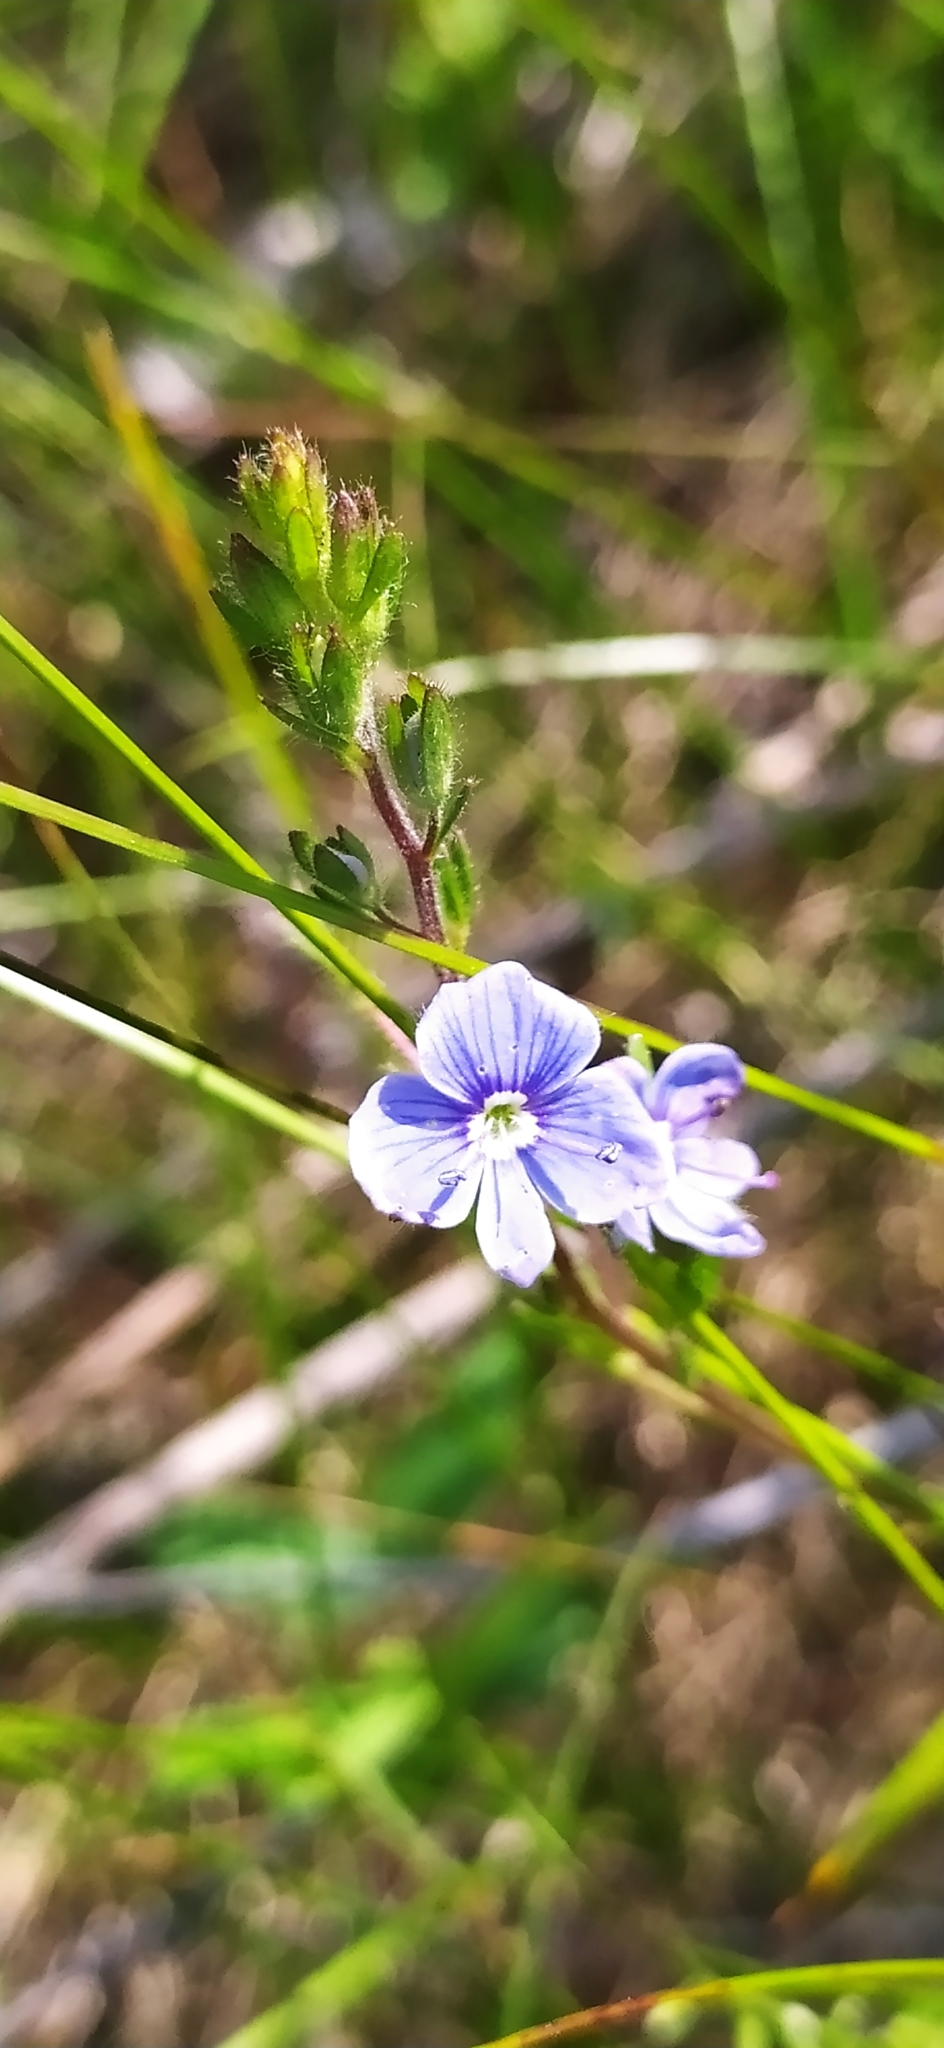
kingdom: Plantae
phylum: Tracheophyta
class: Magnoliopsida
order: Lamiales
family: Plantaginaceae
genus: Veronica
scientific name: Veronica chamaedrys
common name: Germander speedwell
